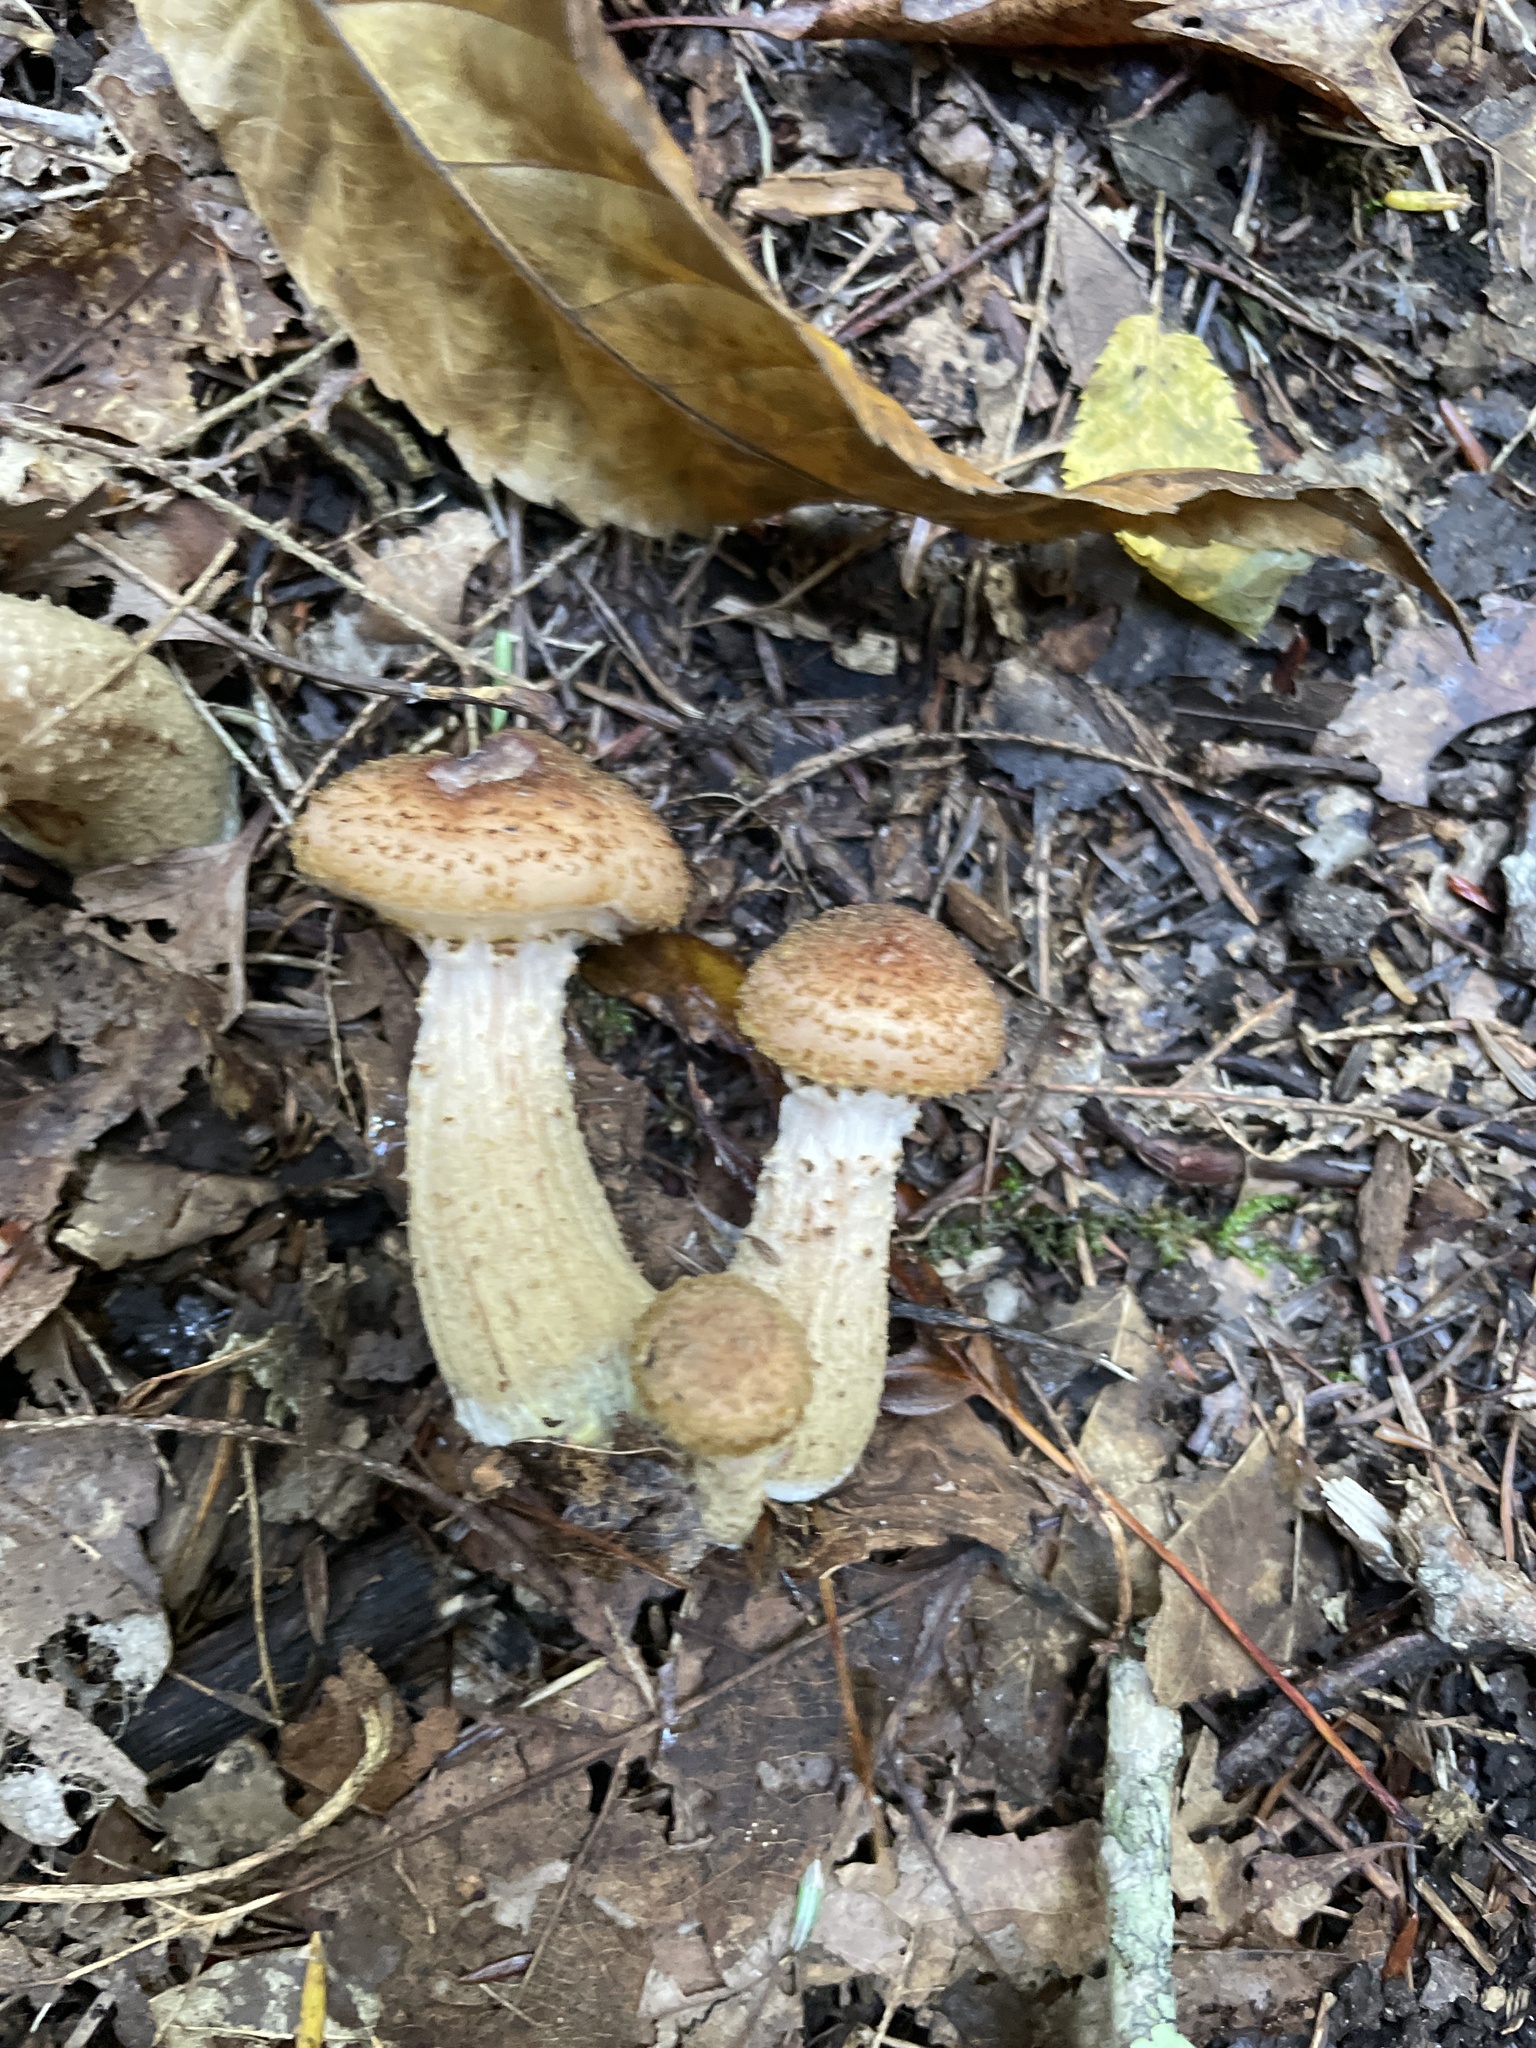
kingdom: Fungi
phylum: Basidiomycota
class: Agaricomycetes
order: Agaricales
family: Physalacriaceae
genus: Armillaria
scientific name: Armillaria gallica
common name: Bulbous honey fungus
